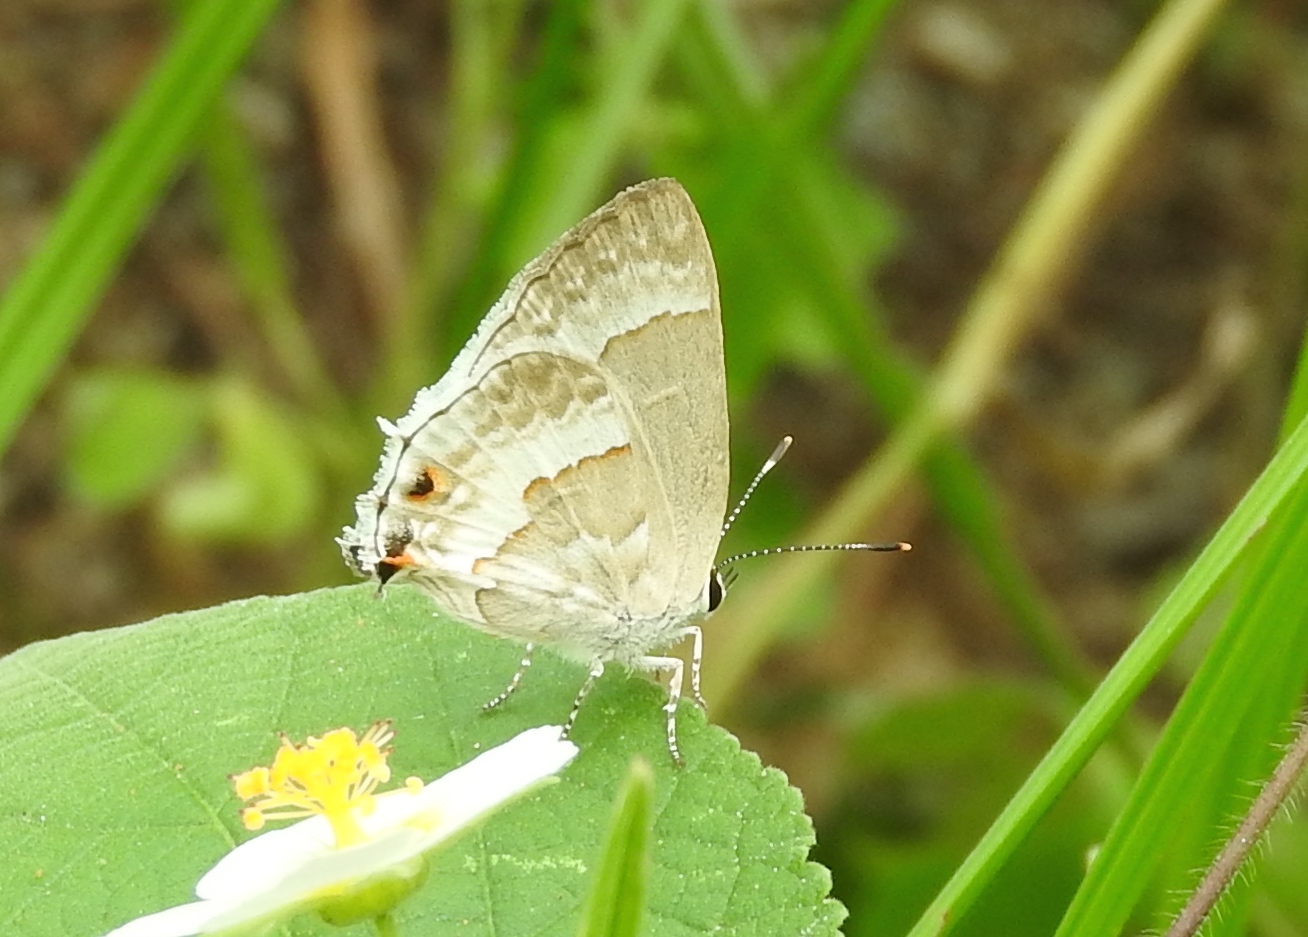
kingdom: Animalia
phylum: Arthropoda
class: Insecta
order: Lepidoptera
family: Lycaenidae
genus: Strymon
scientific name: Strymon albata
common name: White scrub-hairstreak
